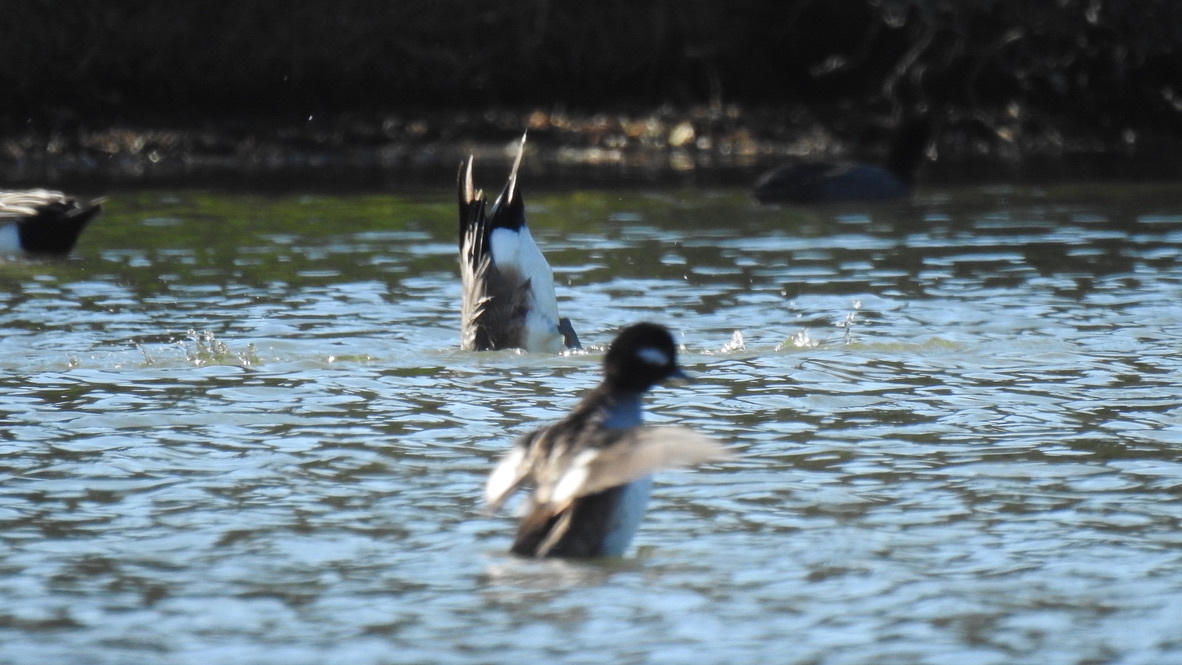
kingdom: Animalia
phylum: Chordata
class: Aves
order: Anseriformes
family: Anatidae
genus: Bucephala
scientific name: Bucephala albeola
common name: Bufflehead
